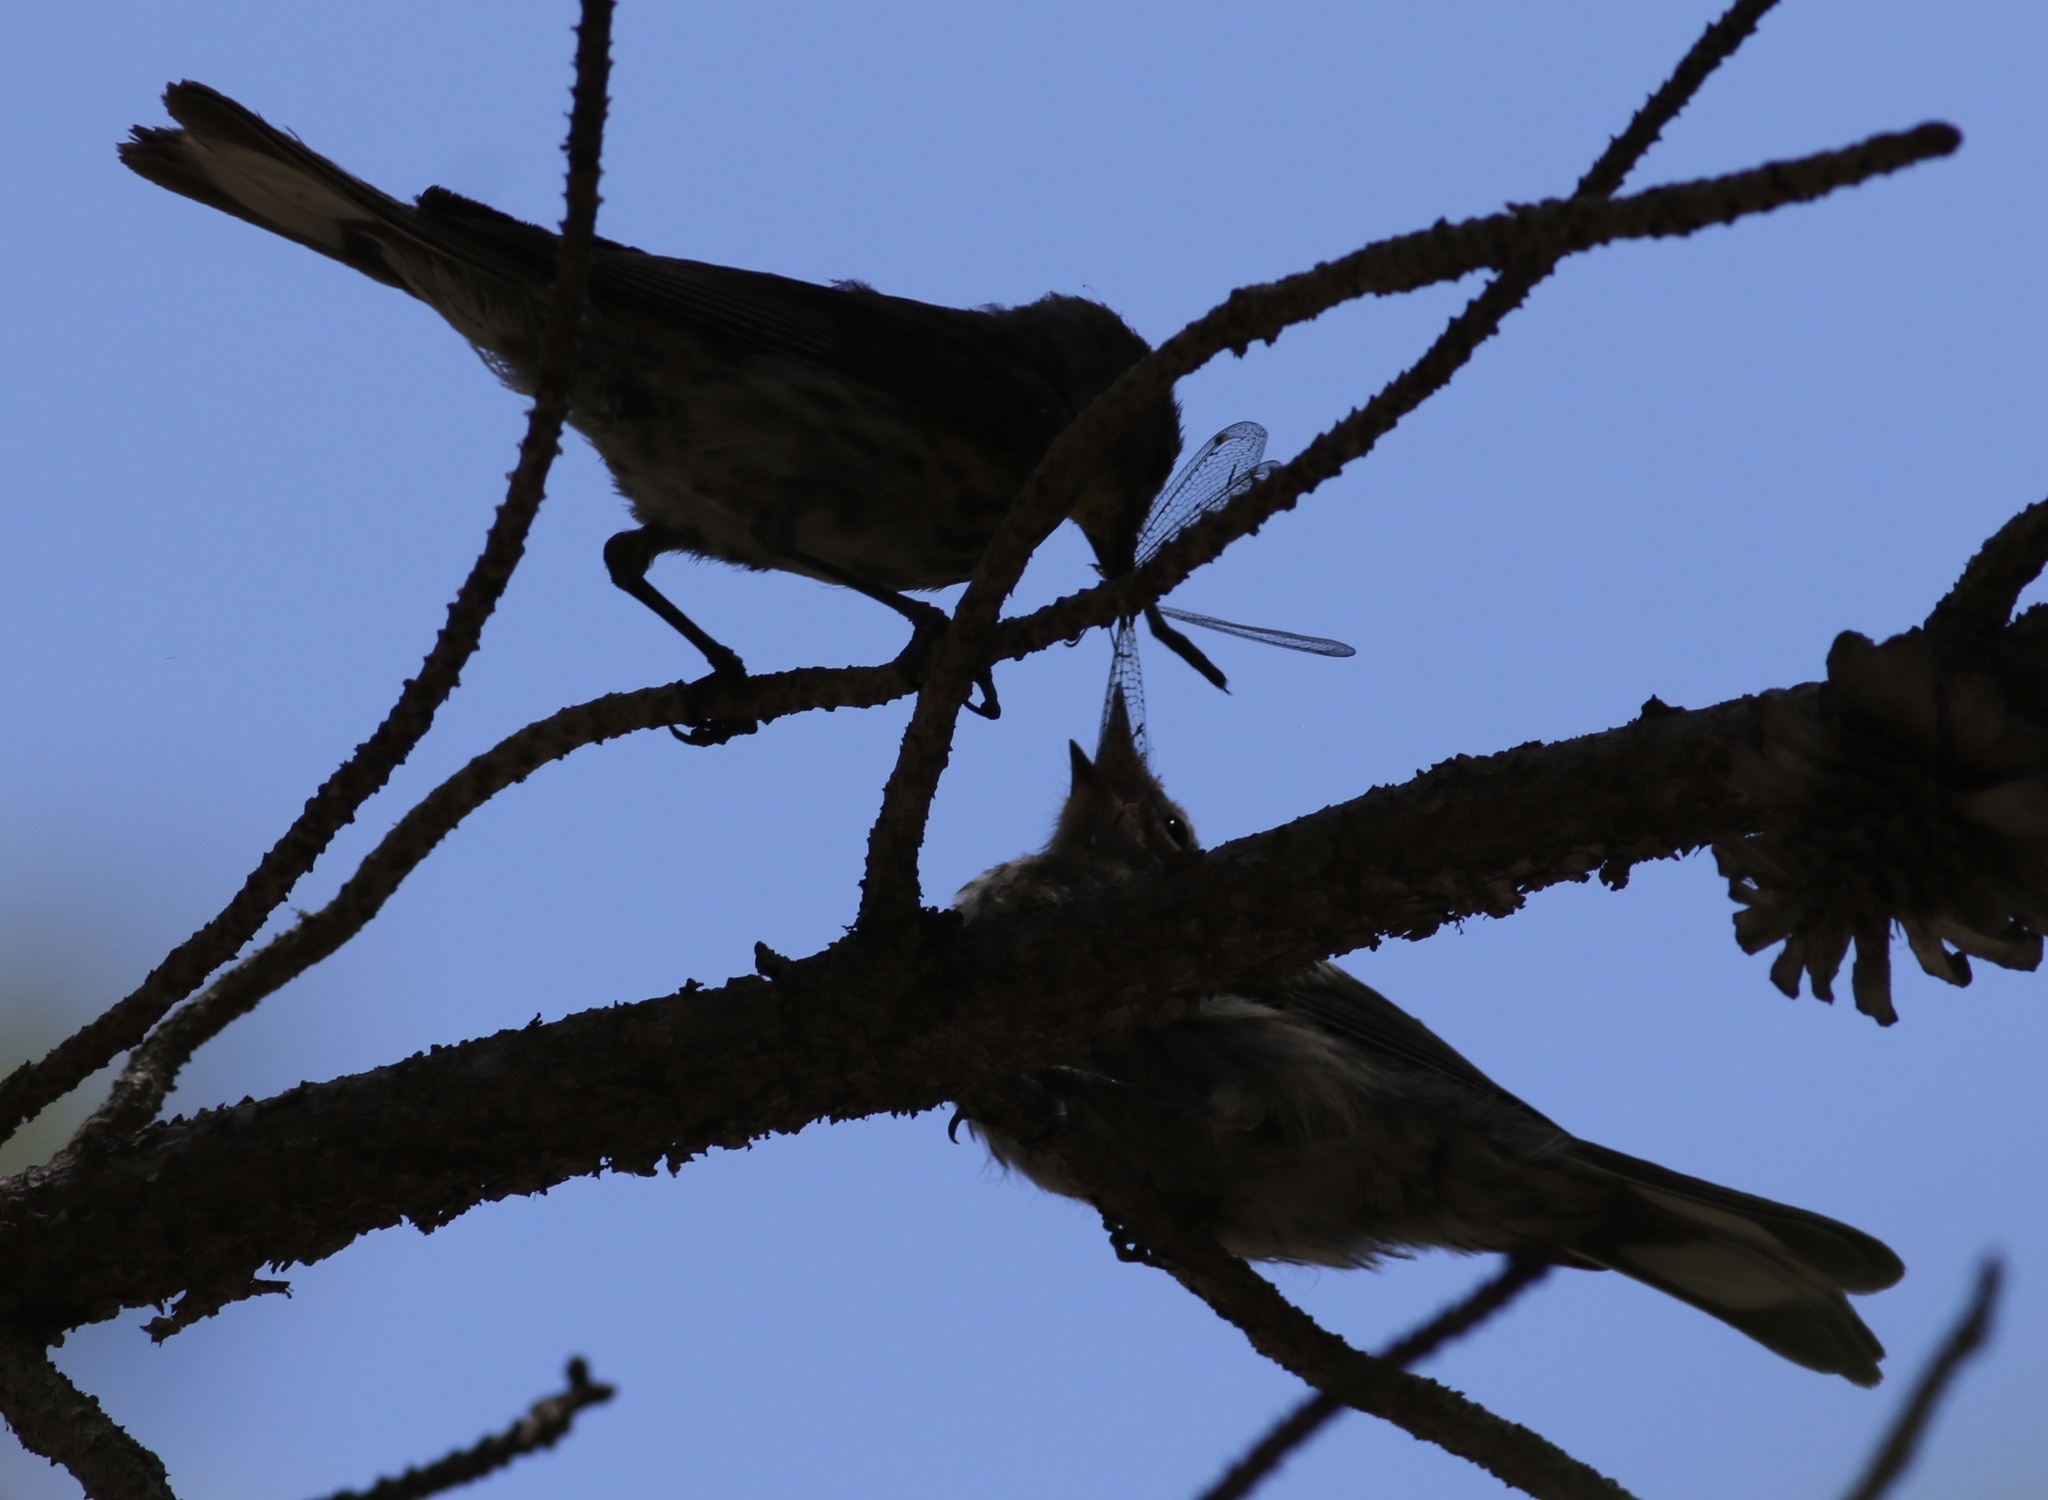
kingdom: Animalia
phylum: Chordata
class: Aves
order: Passeriformes
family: Parulidae
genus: Setophaga
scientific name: Setophaga coronata
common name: Myrtle warbler
